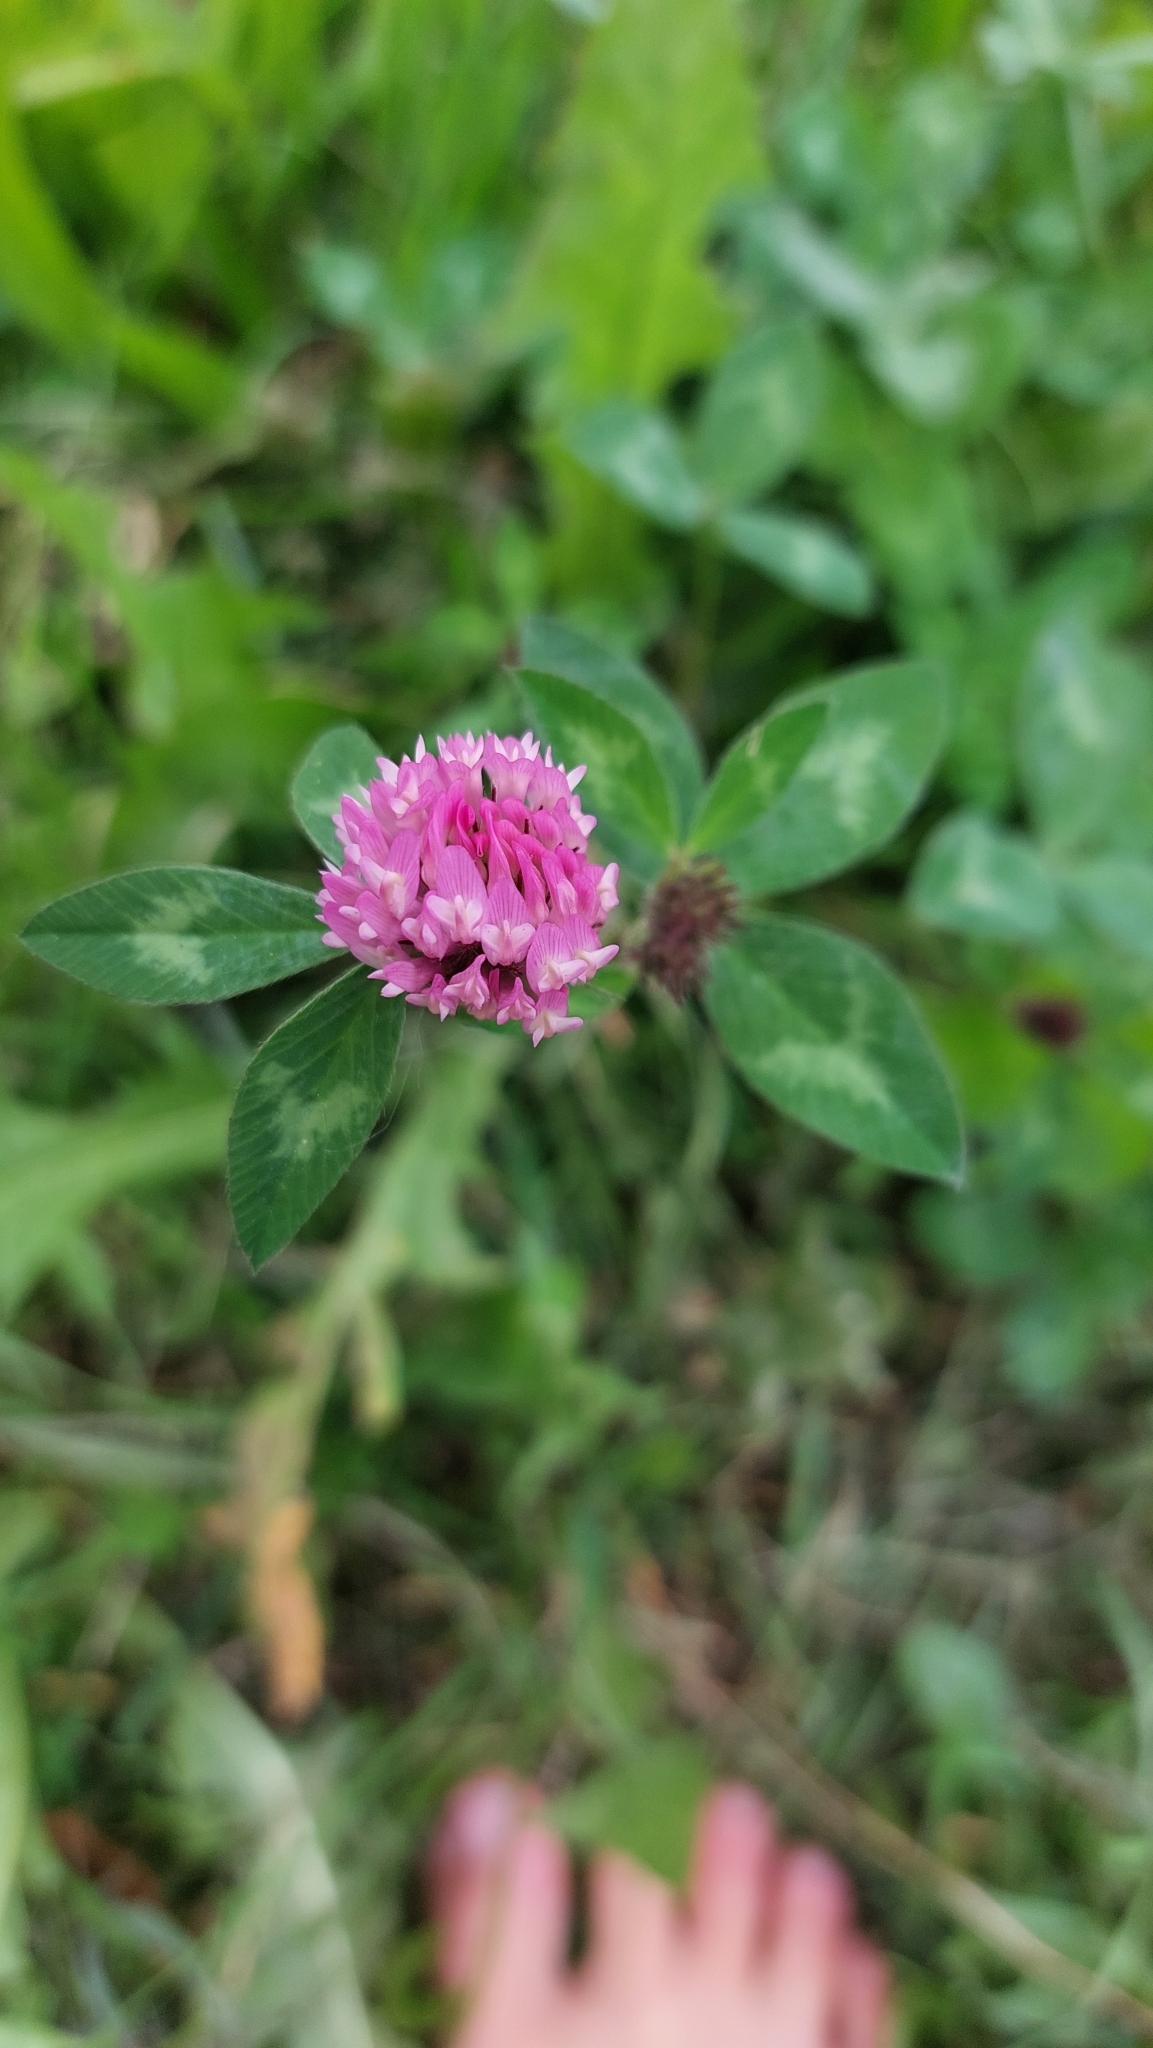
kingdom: Plantae
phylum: Tracheophyta
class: Magnoliopsida
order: Fabales
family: Fabaceae
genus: Trifolium
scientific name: Trifolium pratense
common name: Red clover
